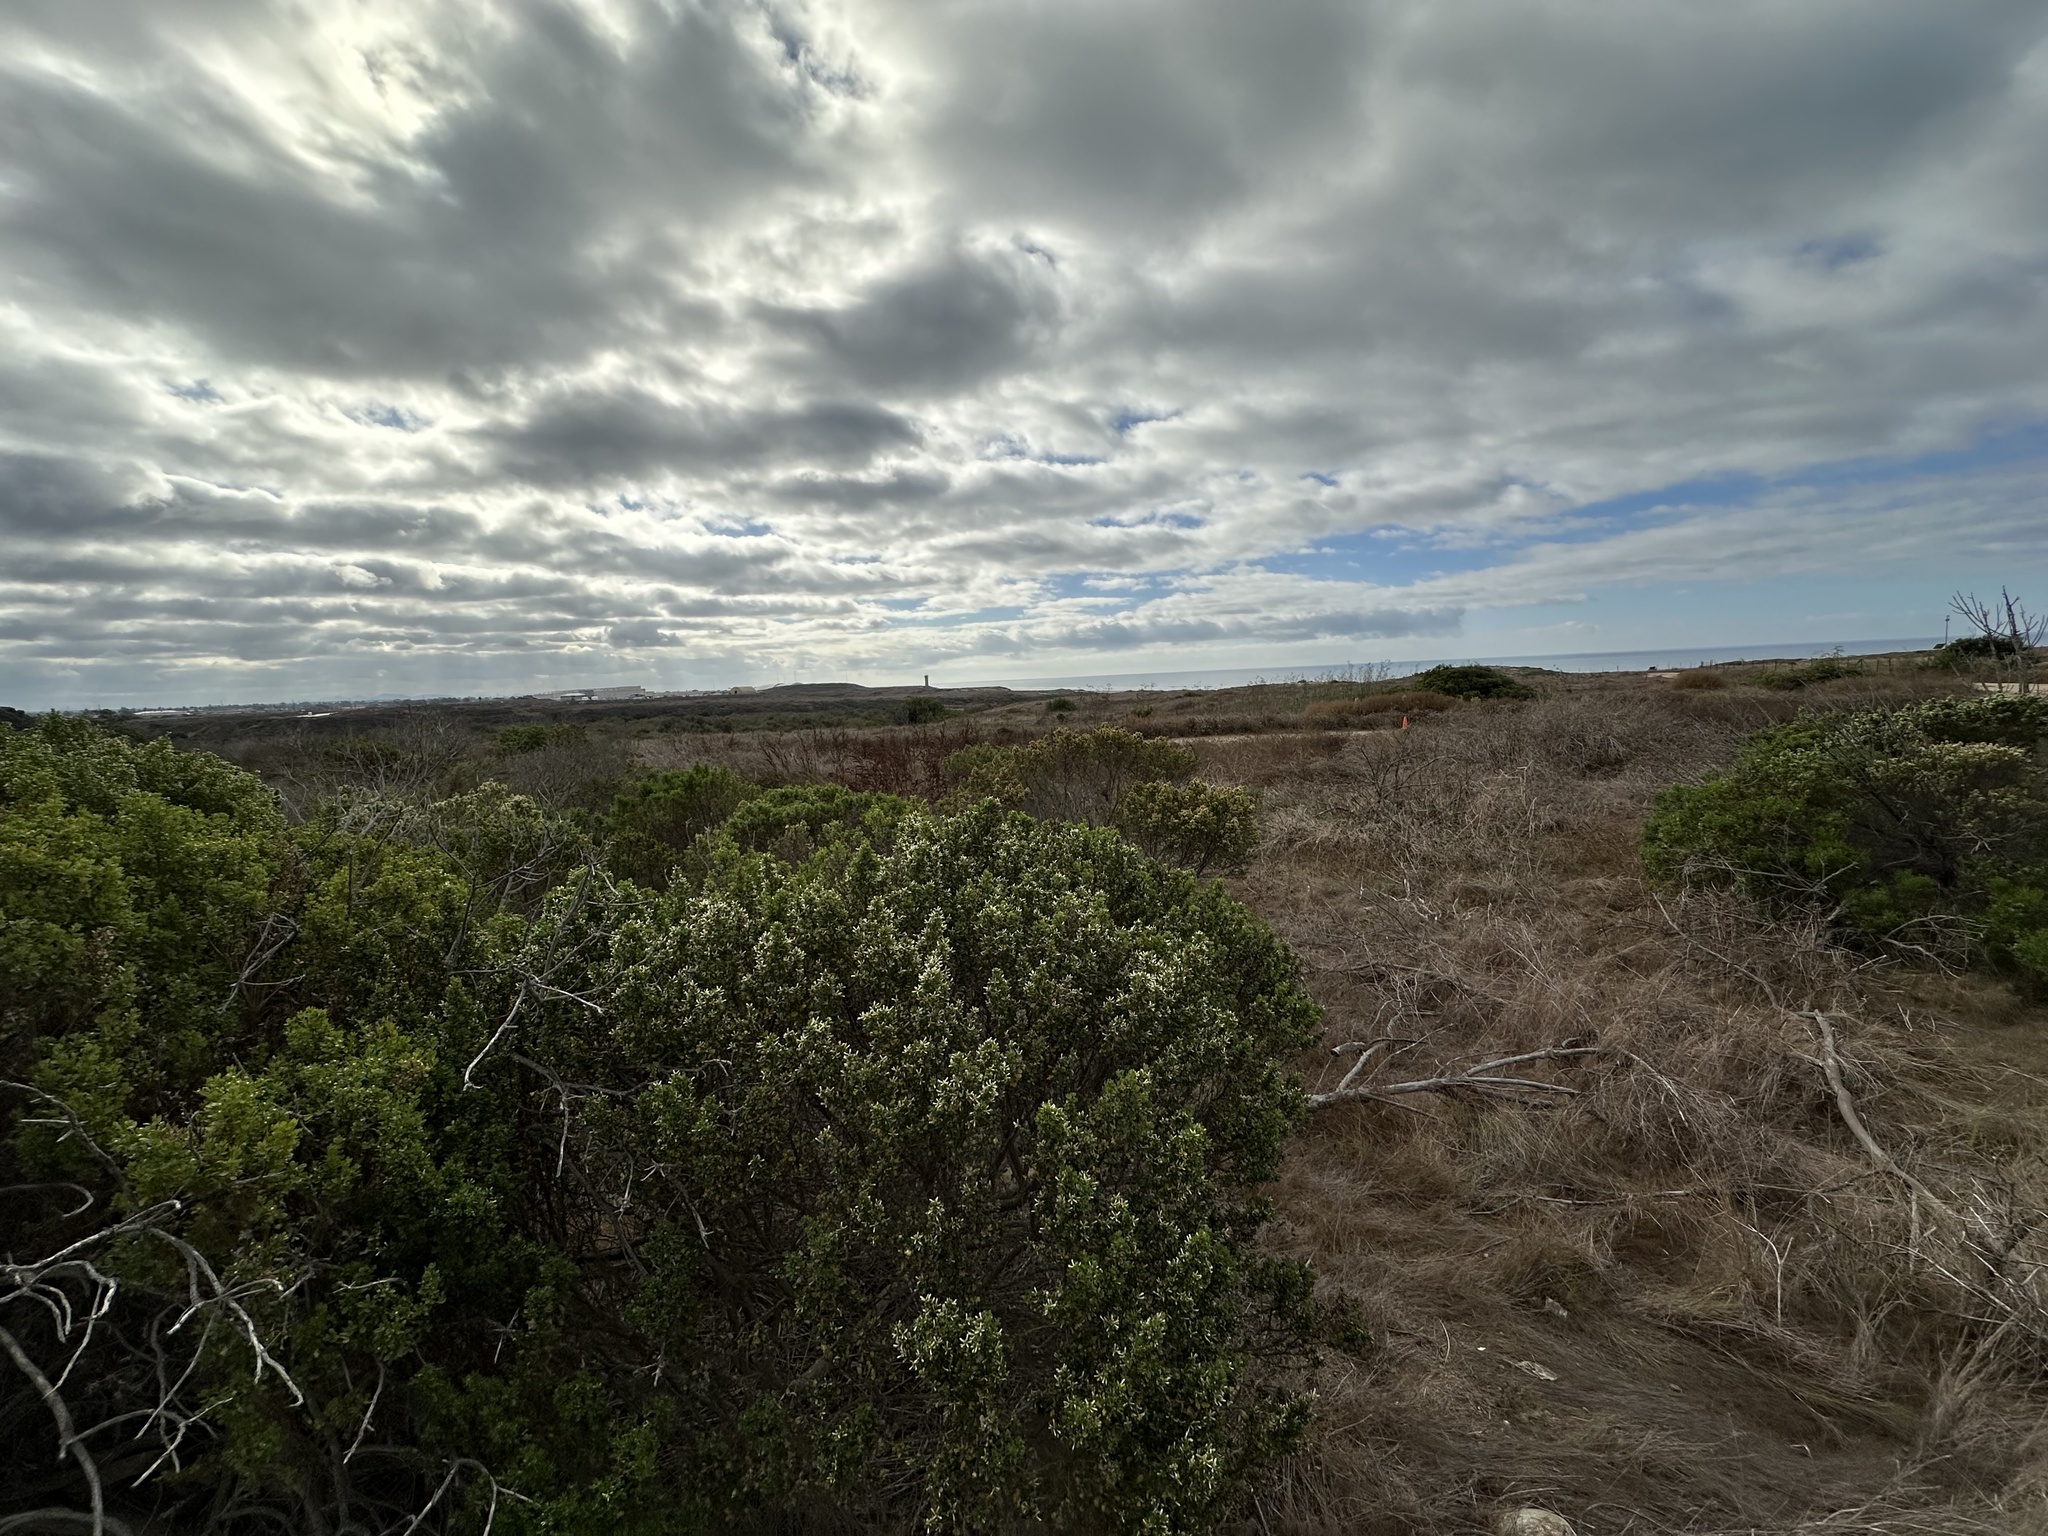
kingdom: Plantae
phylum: Tracheophyta
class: Magnoliopsida
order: Asterales
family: Asteraceae
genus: Baccharis
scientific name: Baccharis pilularis
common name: Coyotebrush
